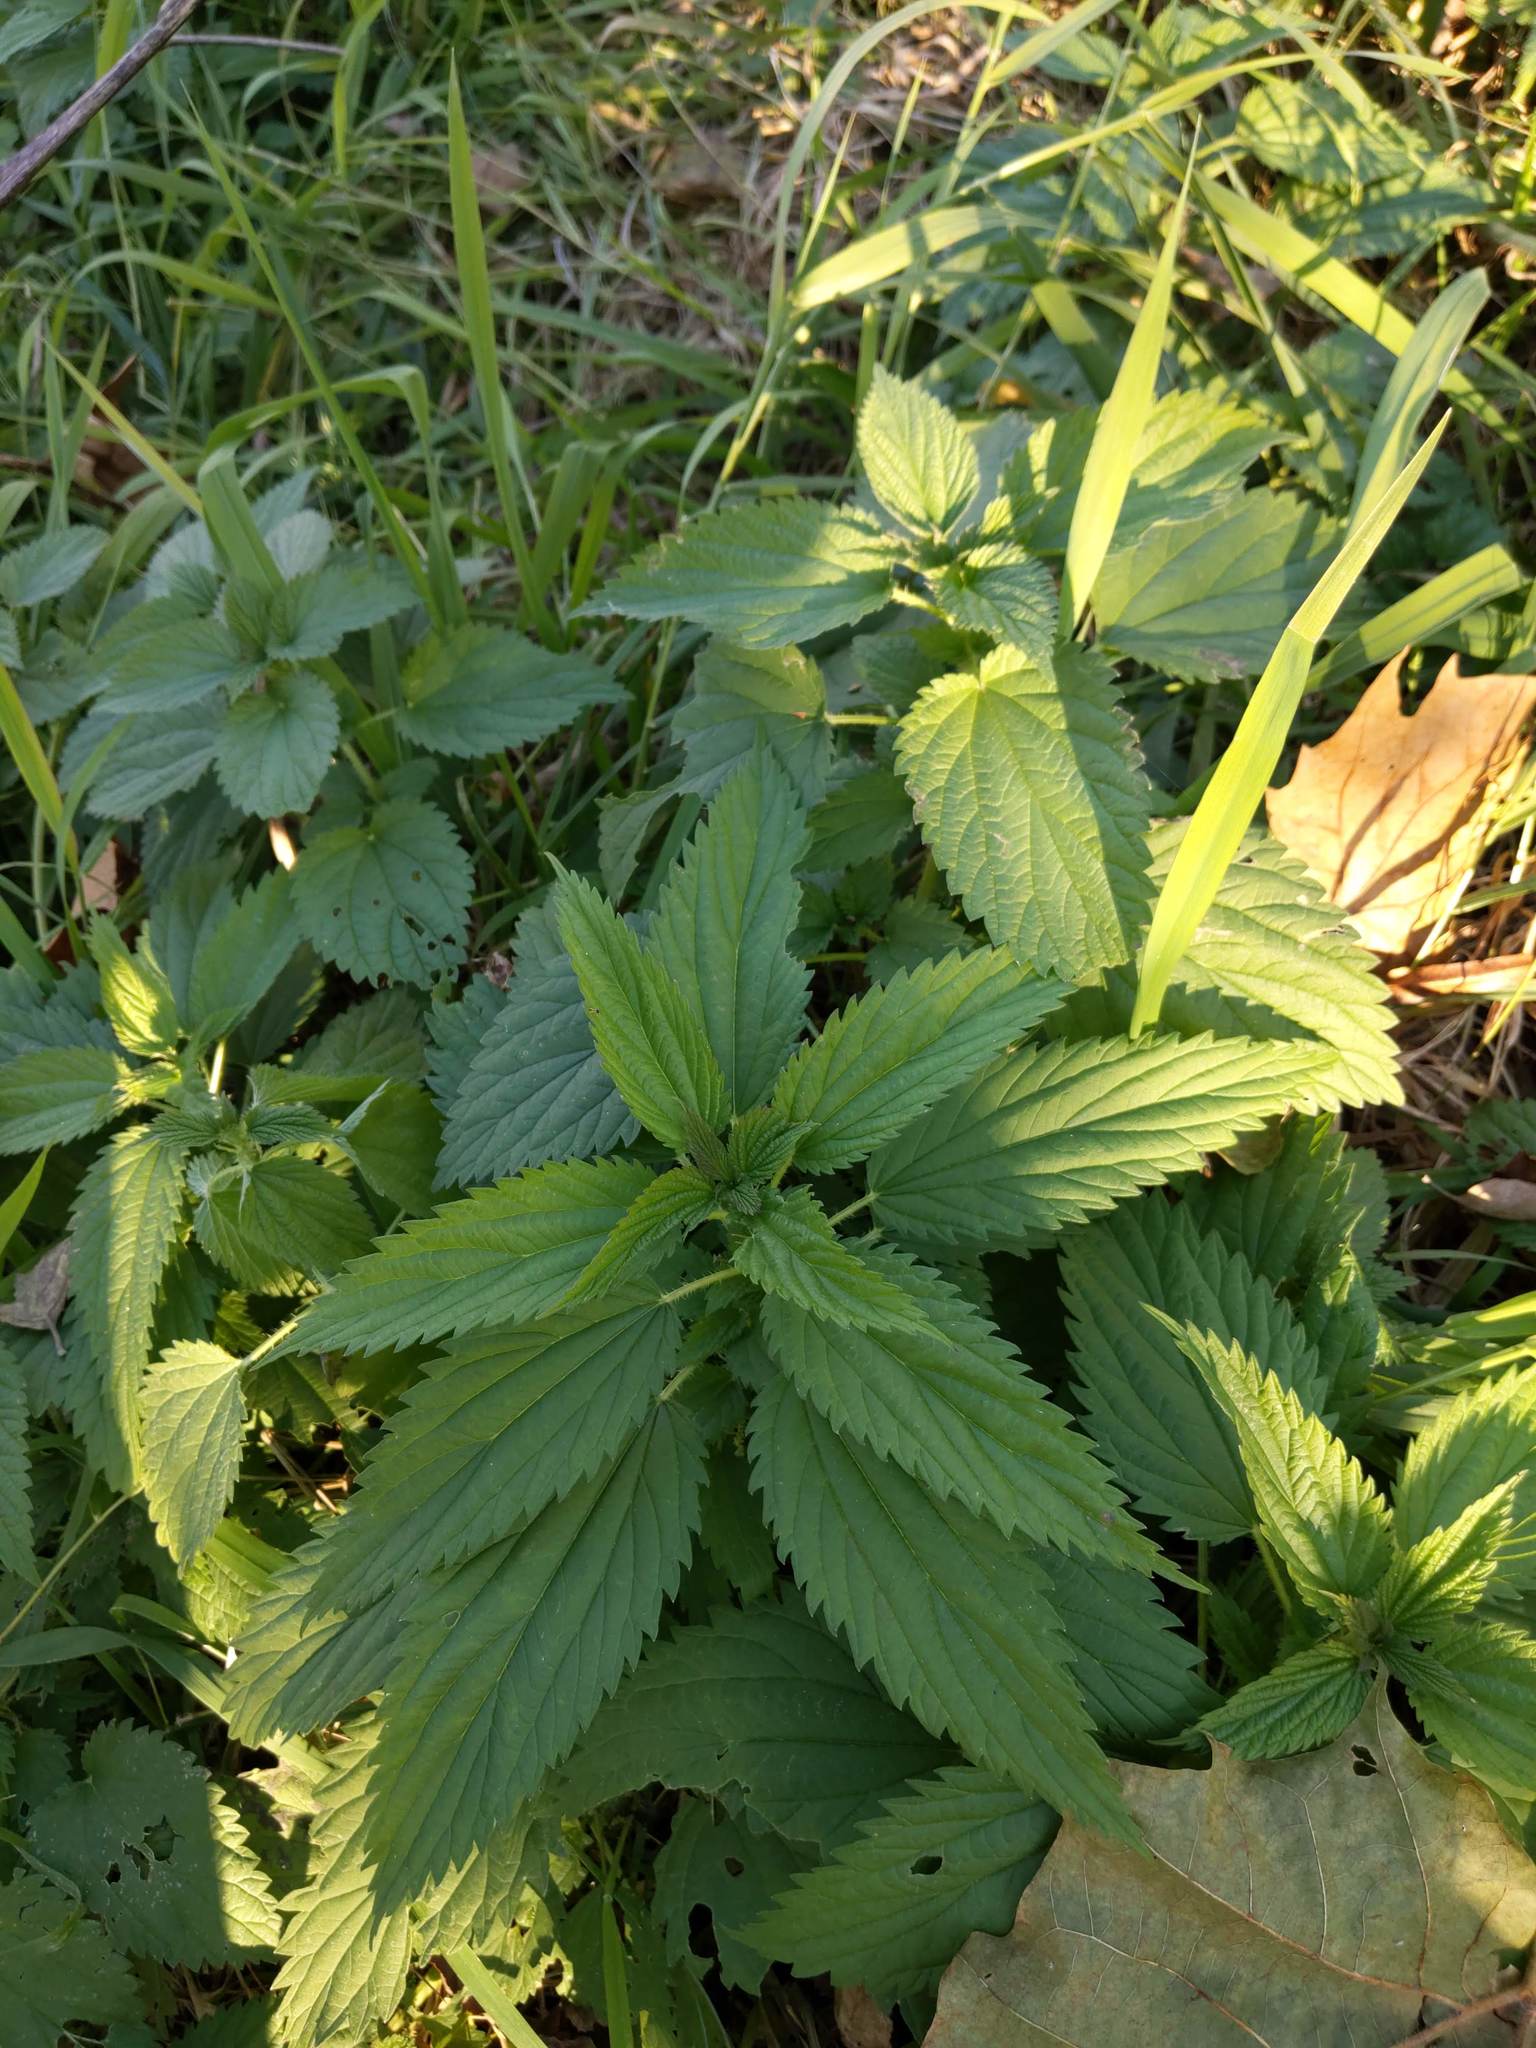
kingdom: Plantae
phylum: Tracheophyta
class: Magnoliopsida
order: Rosales
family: Urticaceae
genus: Urtica
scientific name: Urtica dioica
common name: Common nettle
